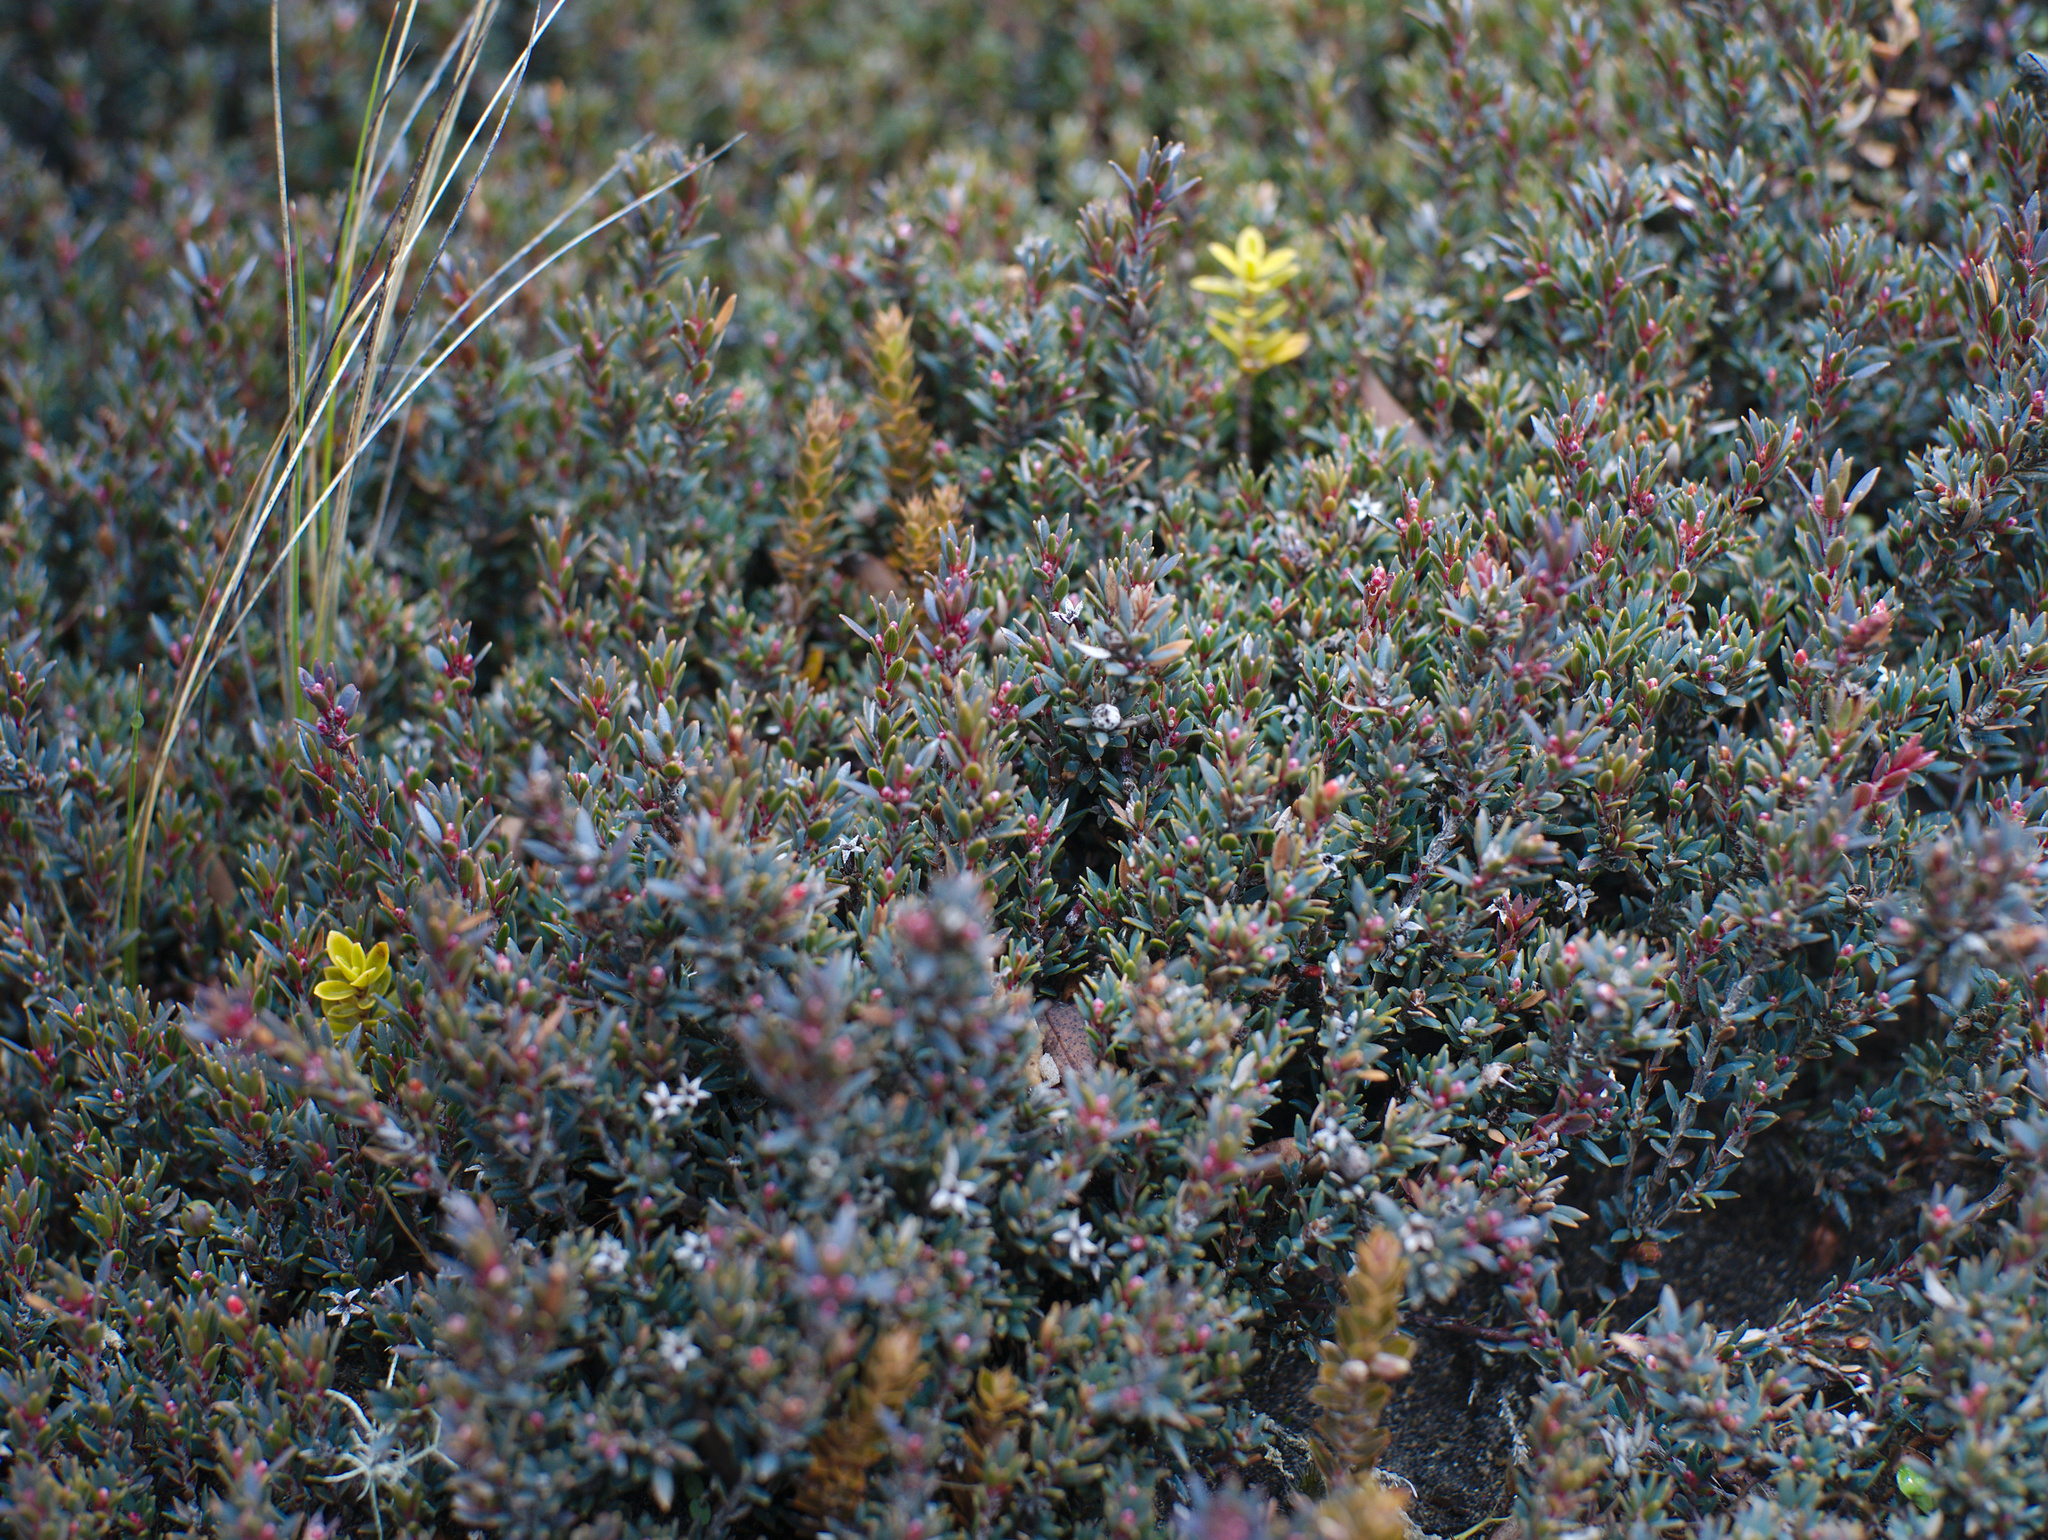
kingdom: Plantae
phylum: Tracheophyta
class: Magnoliopsida
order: Ericales
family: Ericaceae
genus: Pentachondra
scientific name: Pentachondra pumila
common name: Carpet-heath
